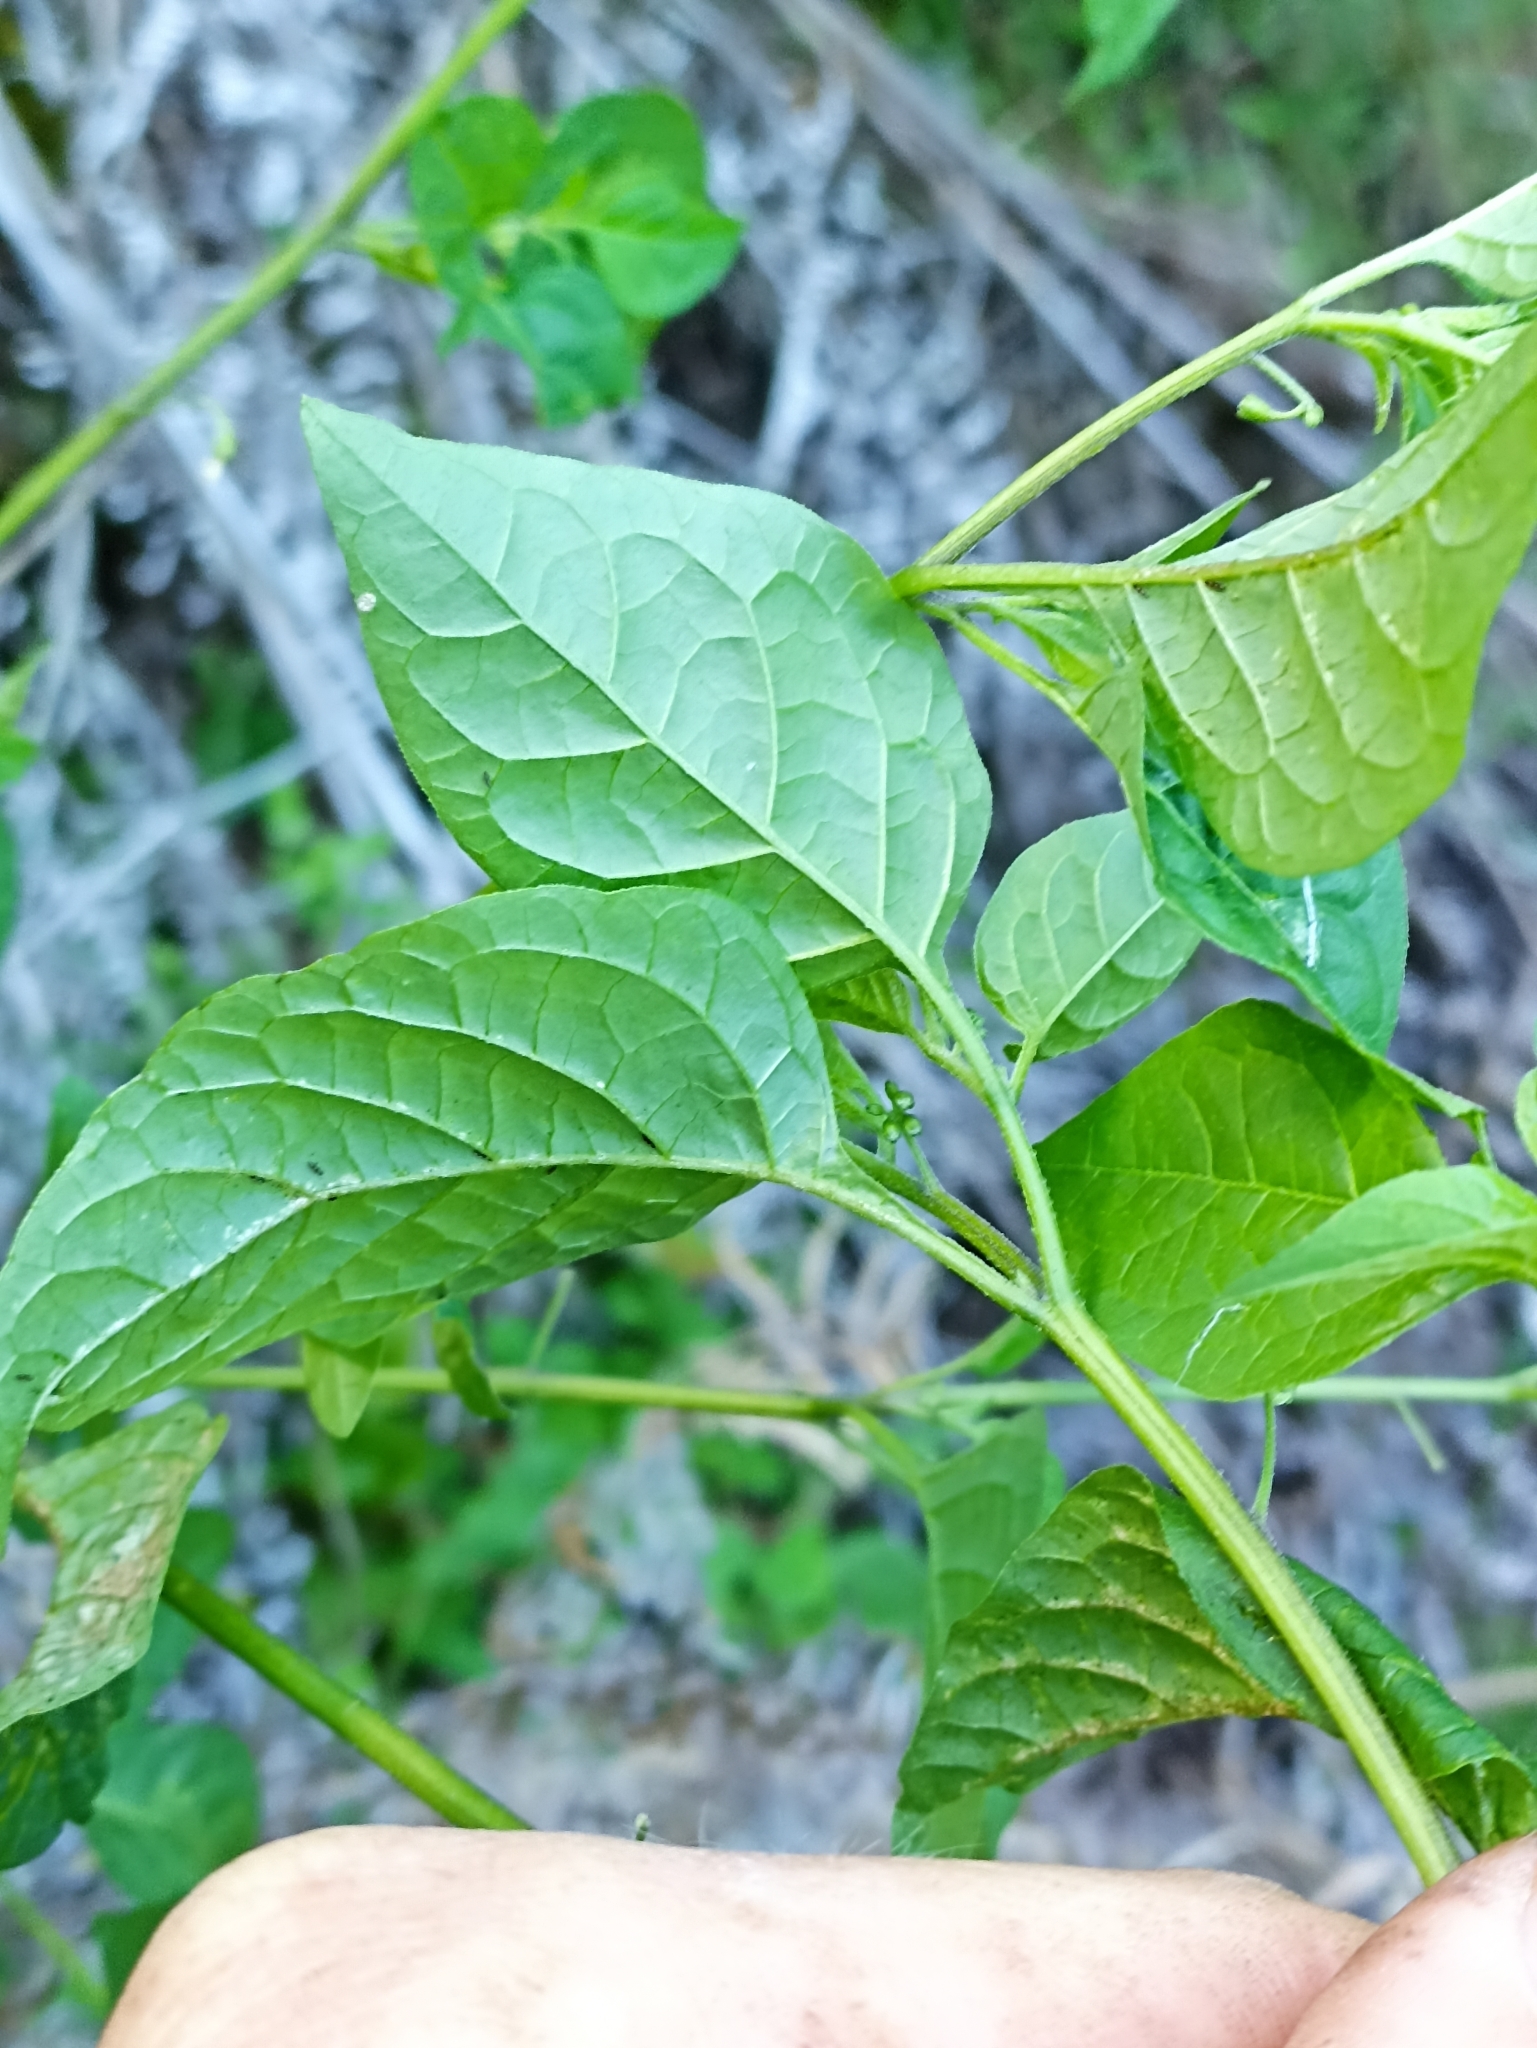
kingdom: Plantae
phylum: Tracheophyta
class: Magnoliopsida
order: Solanales
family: Solanaceae
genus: Solanum
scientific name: Solanum americanum
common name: American black nightshade
